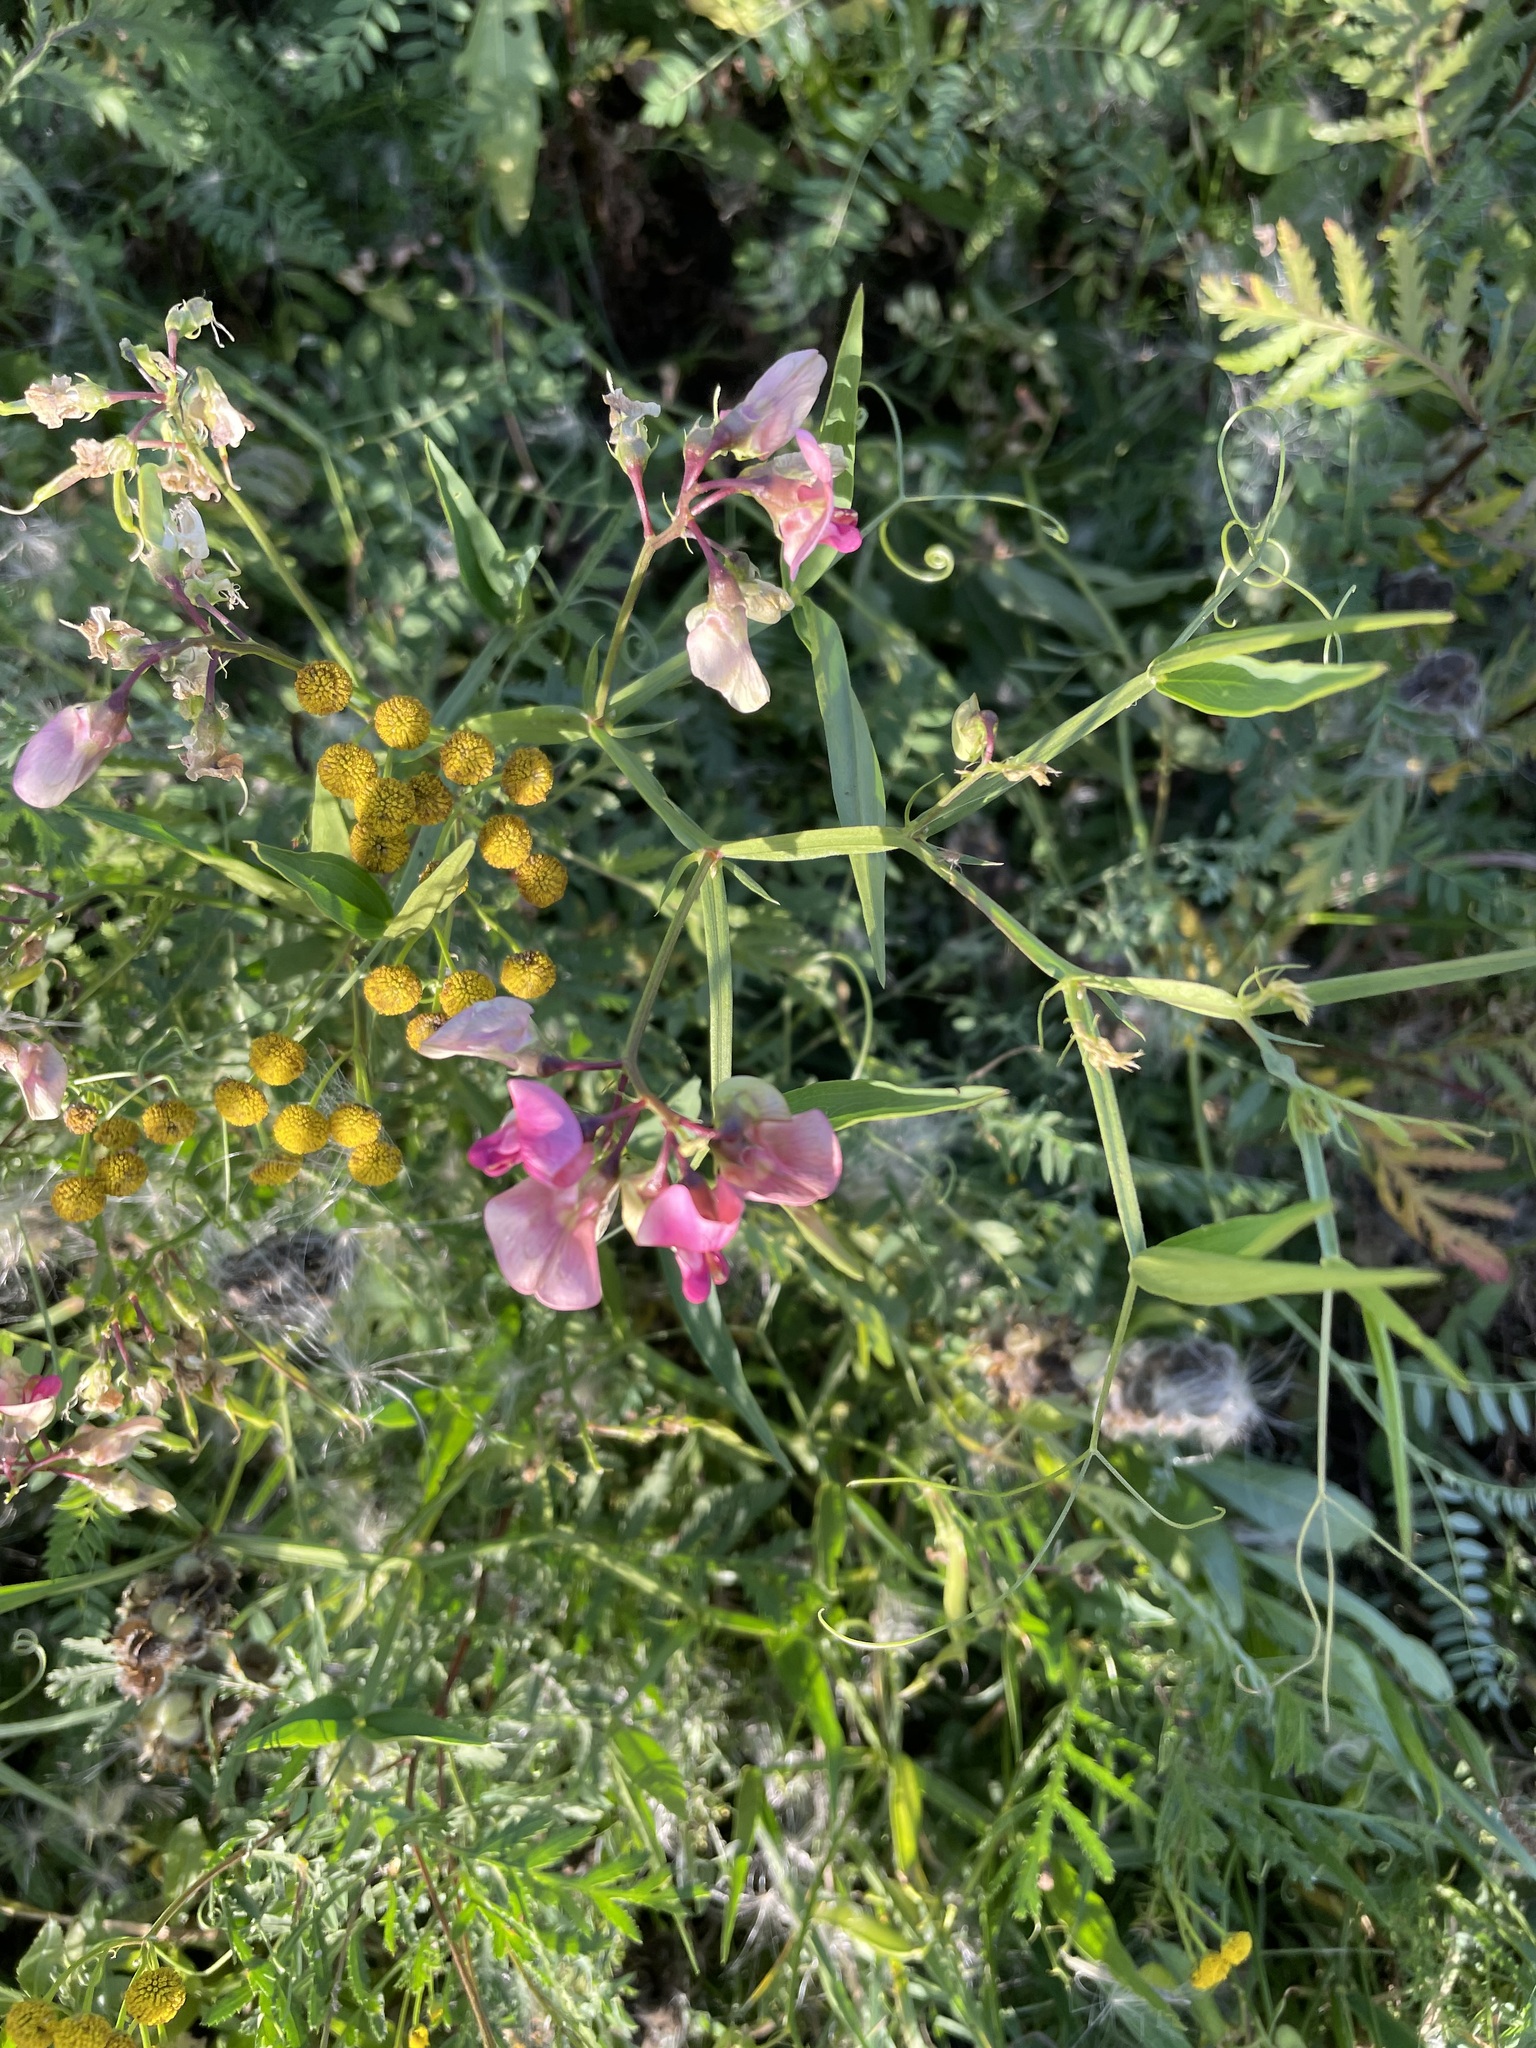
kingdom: Plantae
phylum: Tracheophyta
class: Magnoliopsida
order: Fabales
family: Fabaceae
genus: Lathyrus
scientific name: Lathyrus sylvestris
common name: Flat pea
